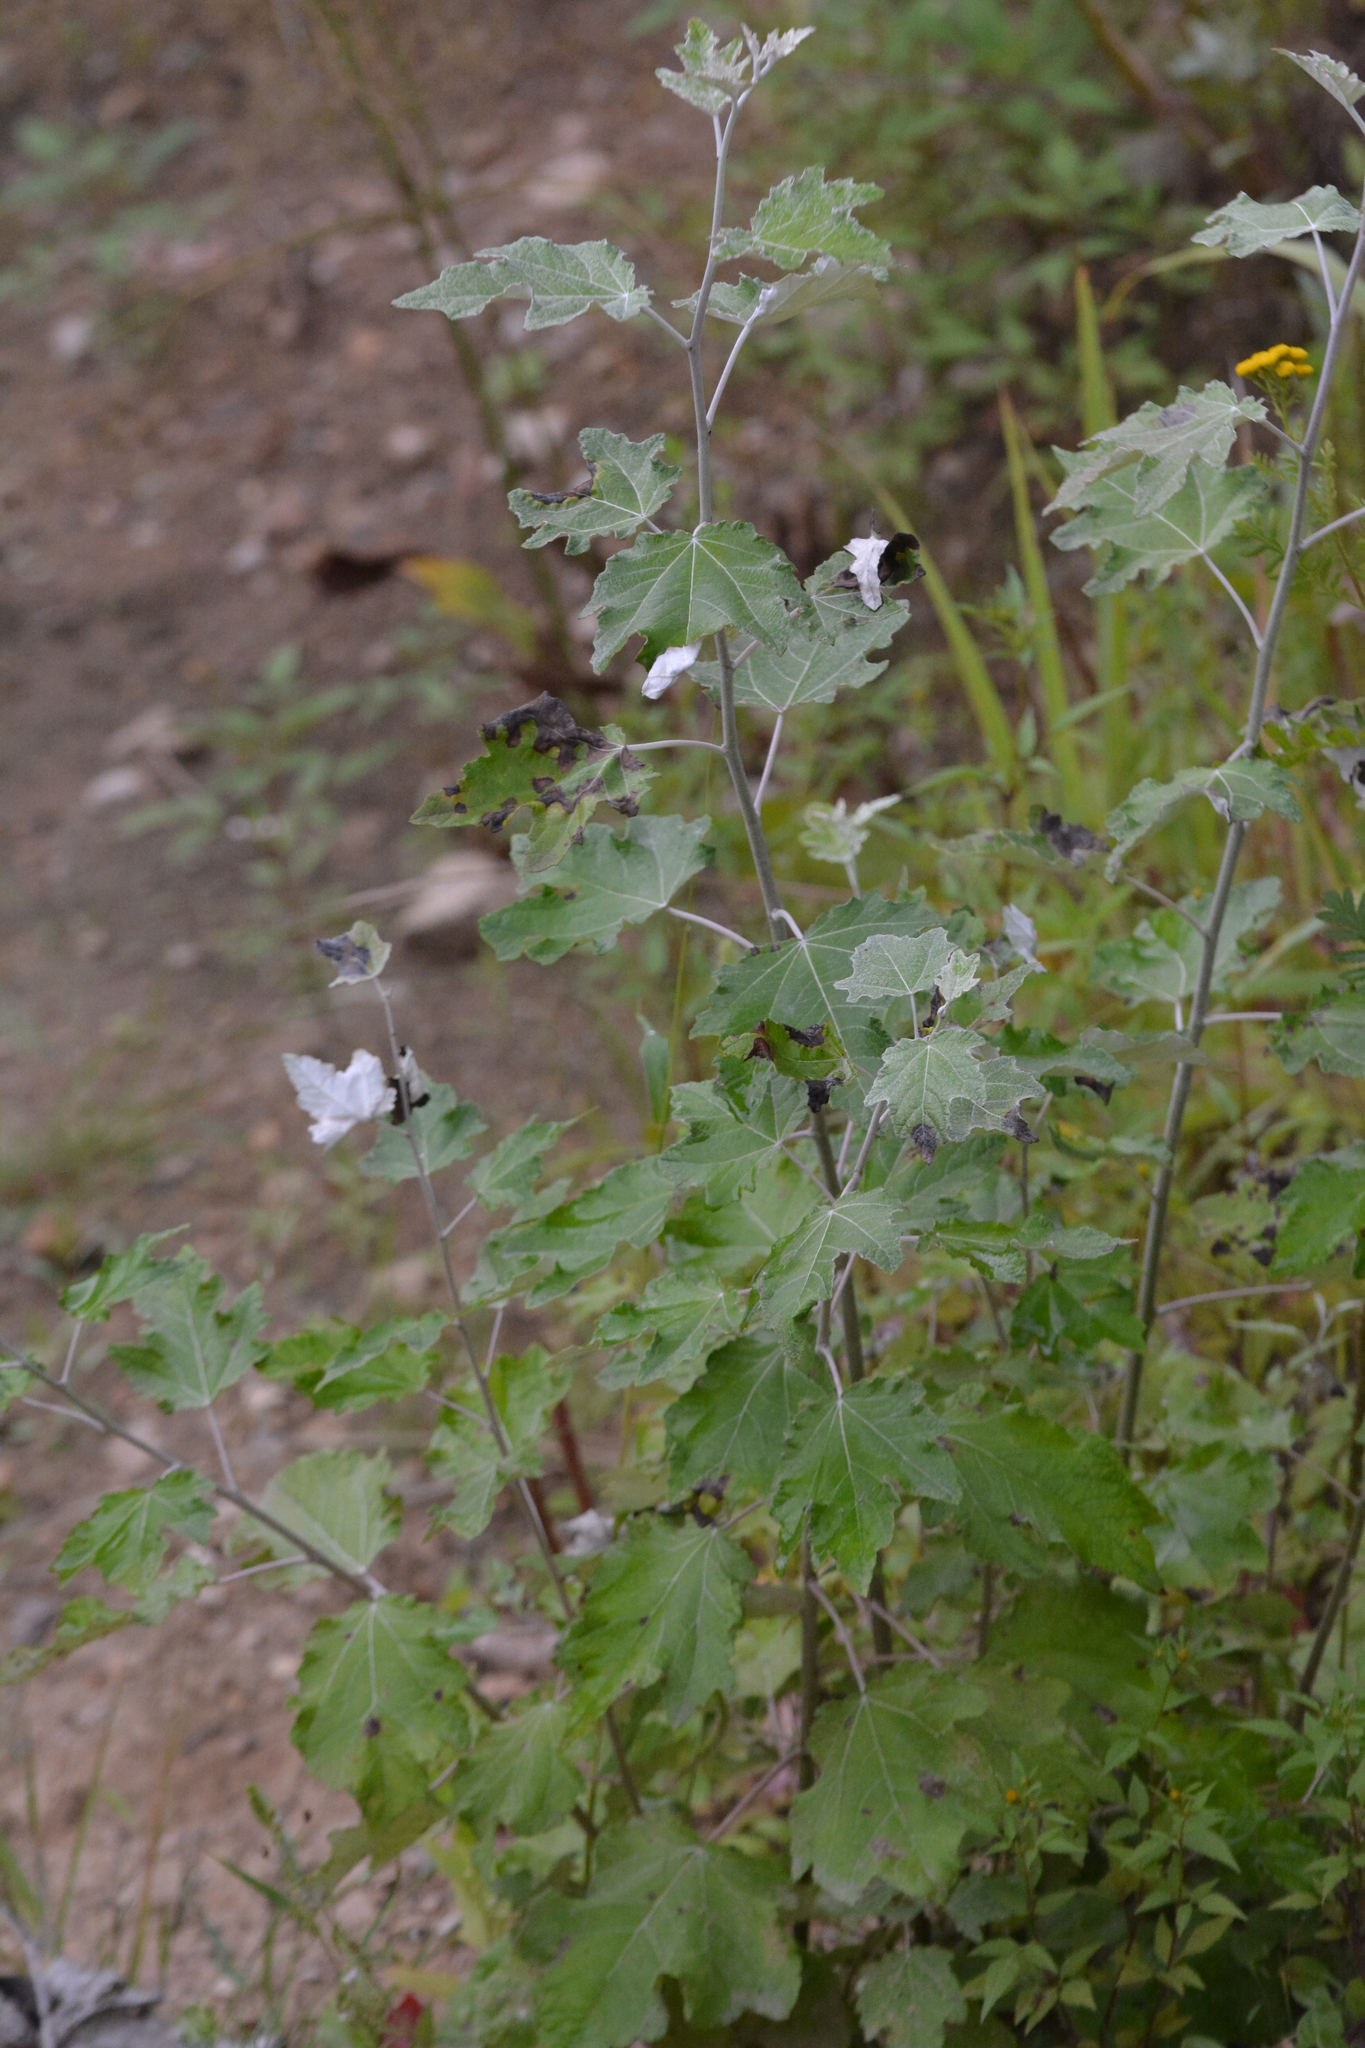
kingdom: Plantae
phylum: Tracheophyta
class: Magnoliopsida
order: Malpighiales
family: Salicaceae
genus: Populus
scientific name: Populus alba
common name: White poplar
